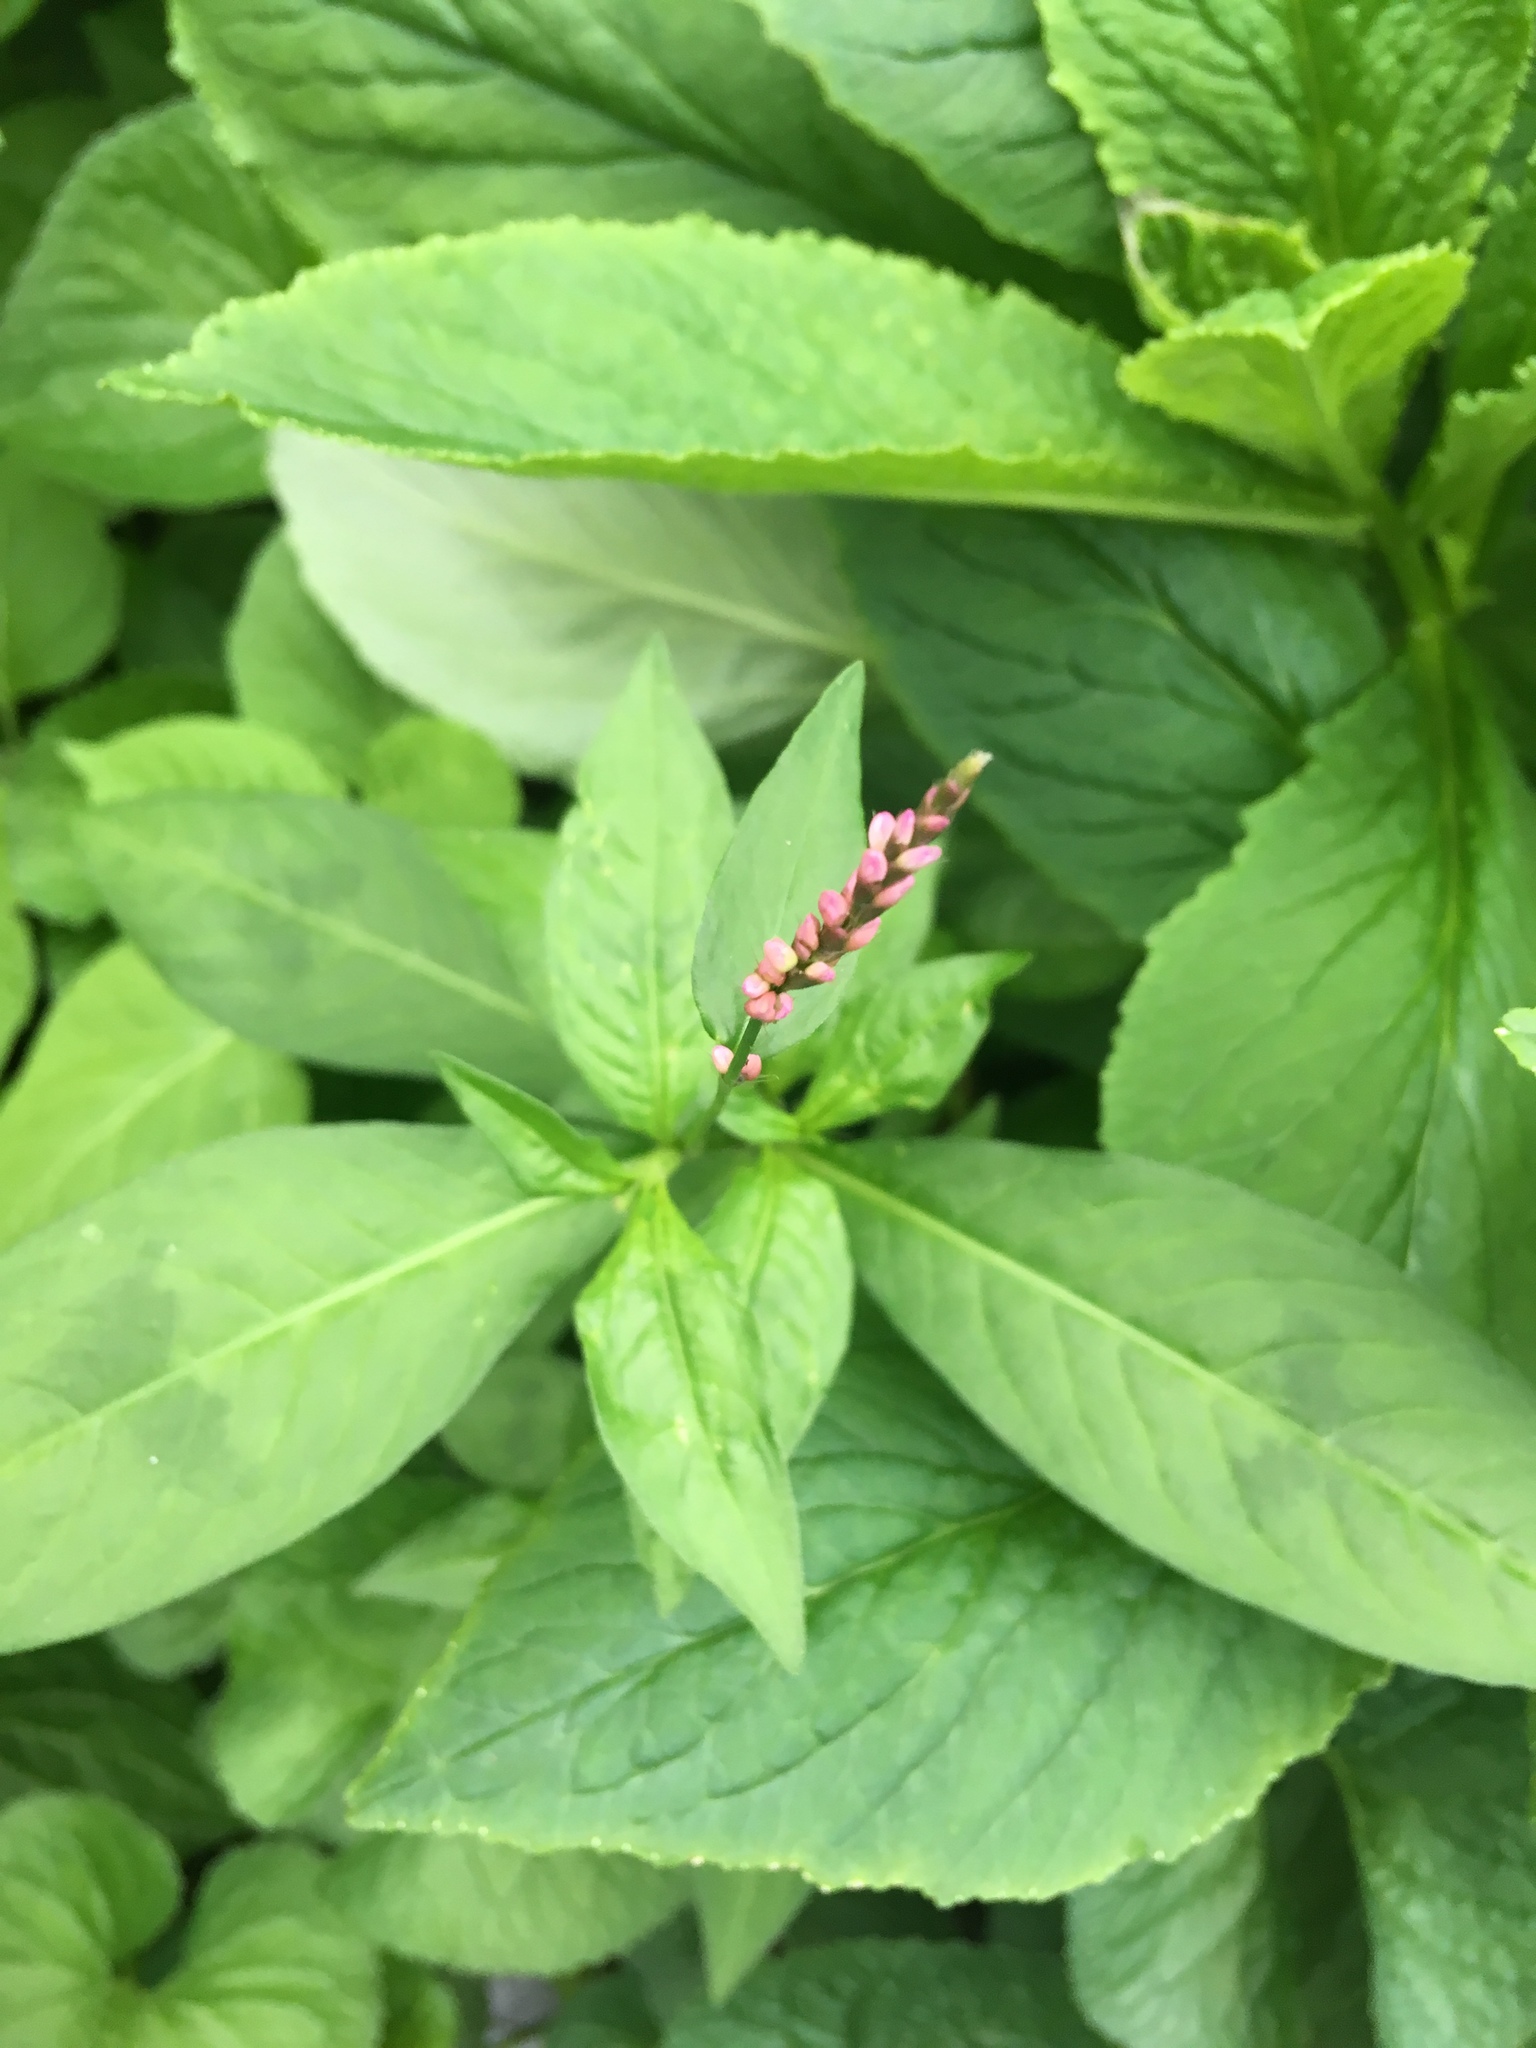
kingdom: Plantae
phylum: Tracheophyta
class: Magnoliopsida
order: Caryophyllales
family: Polygonaceae
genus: Persicaria
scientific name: Persicaria longiseta
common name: Bristly lady's-thumb
